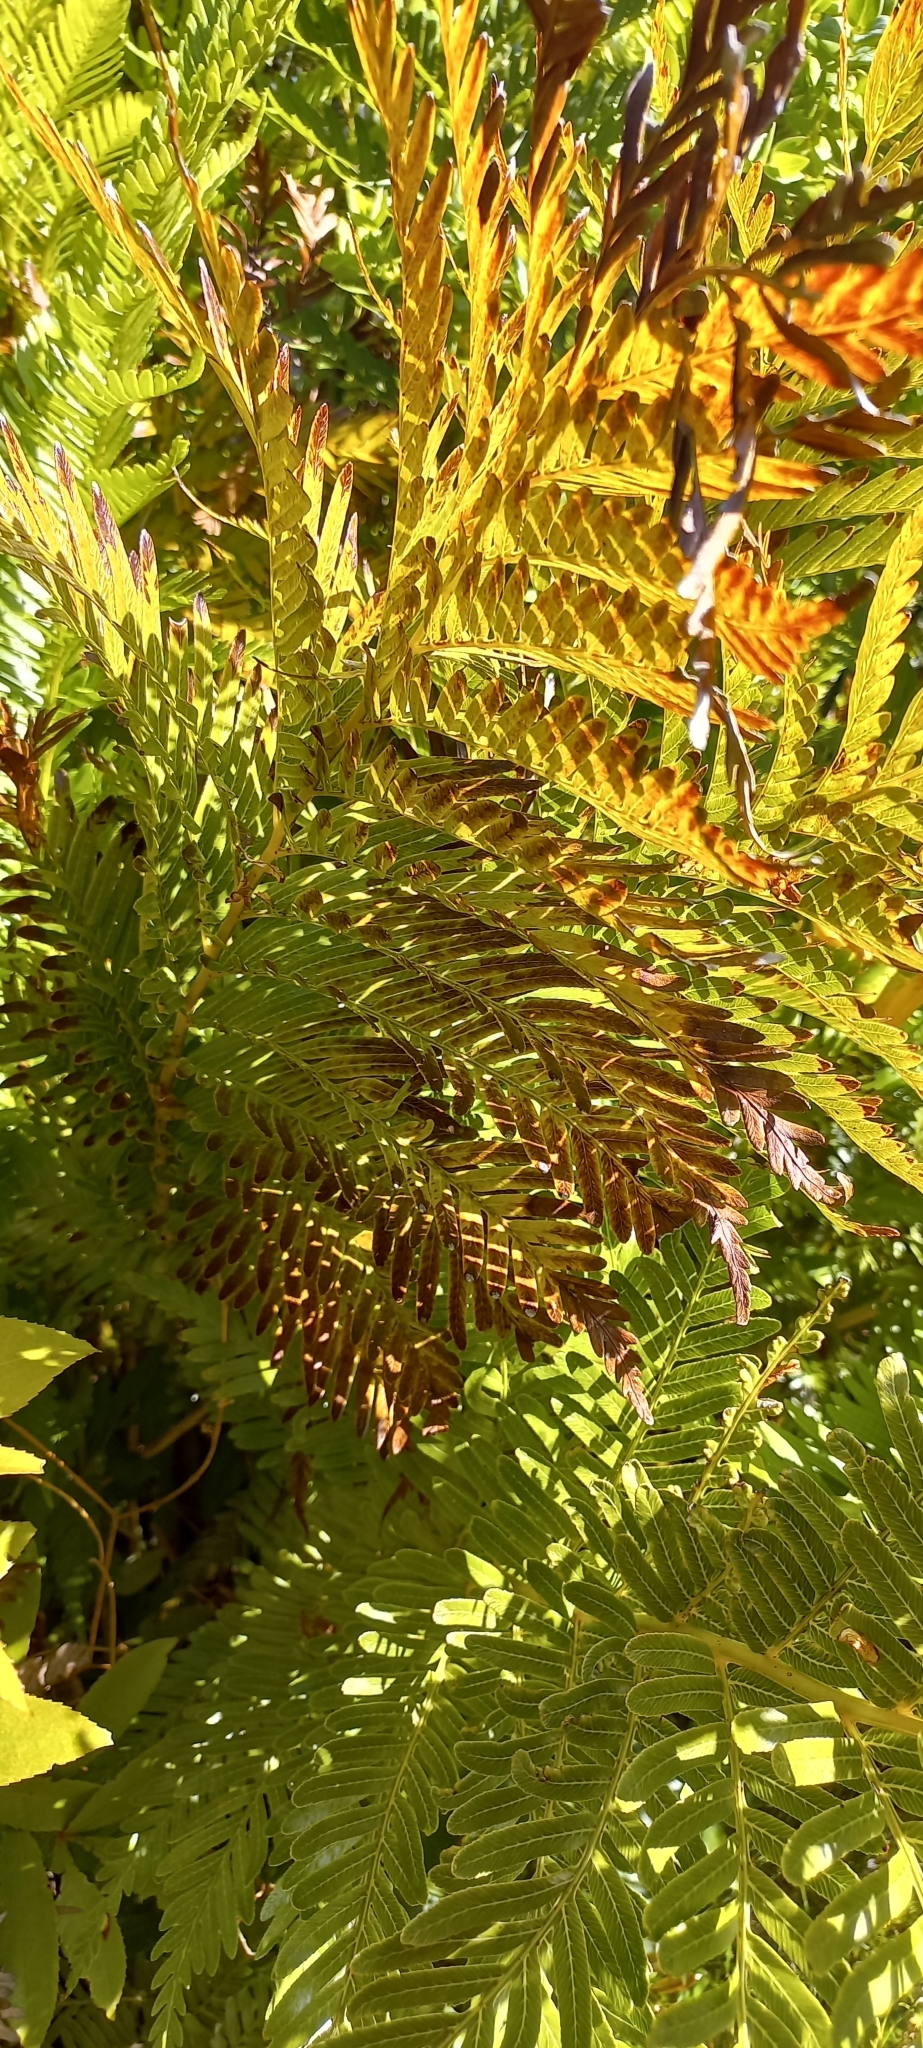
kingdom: Plantae
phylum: Tracheophyta
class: Polypodiopsida
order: Osmundales
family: Osmundaceae
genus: Todea
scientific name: Todea barbara
